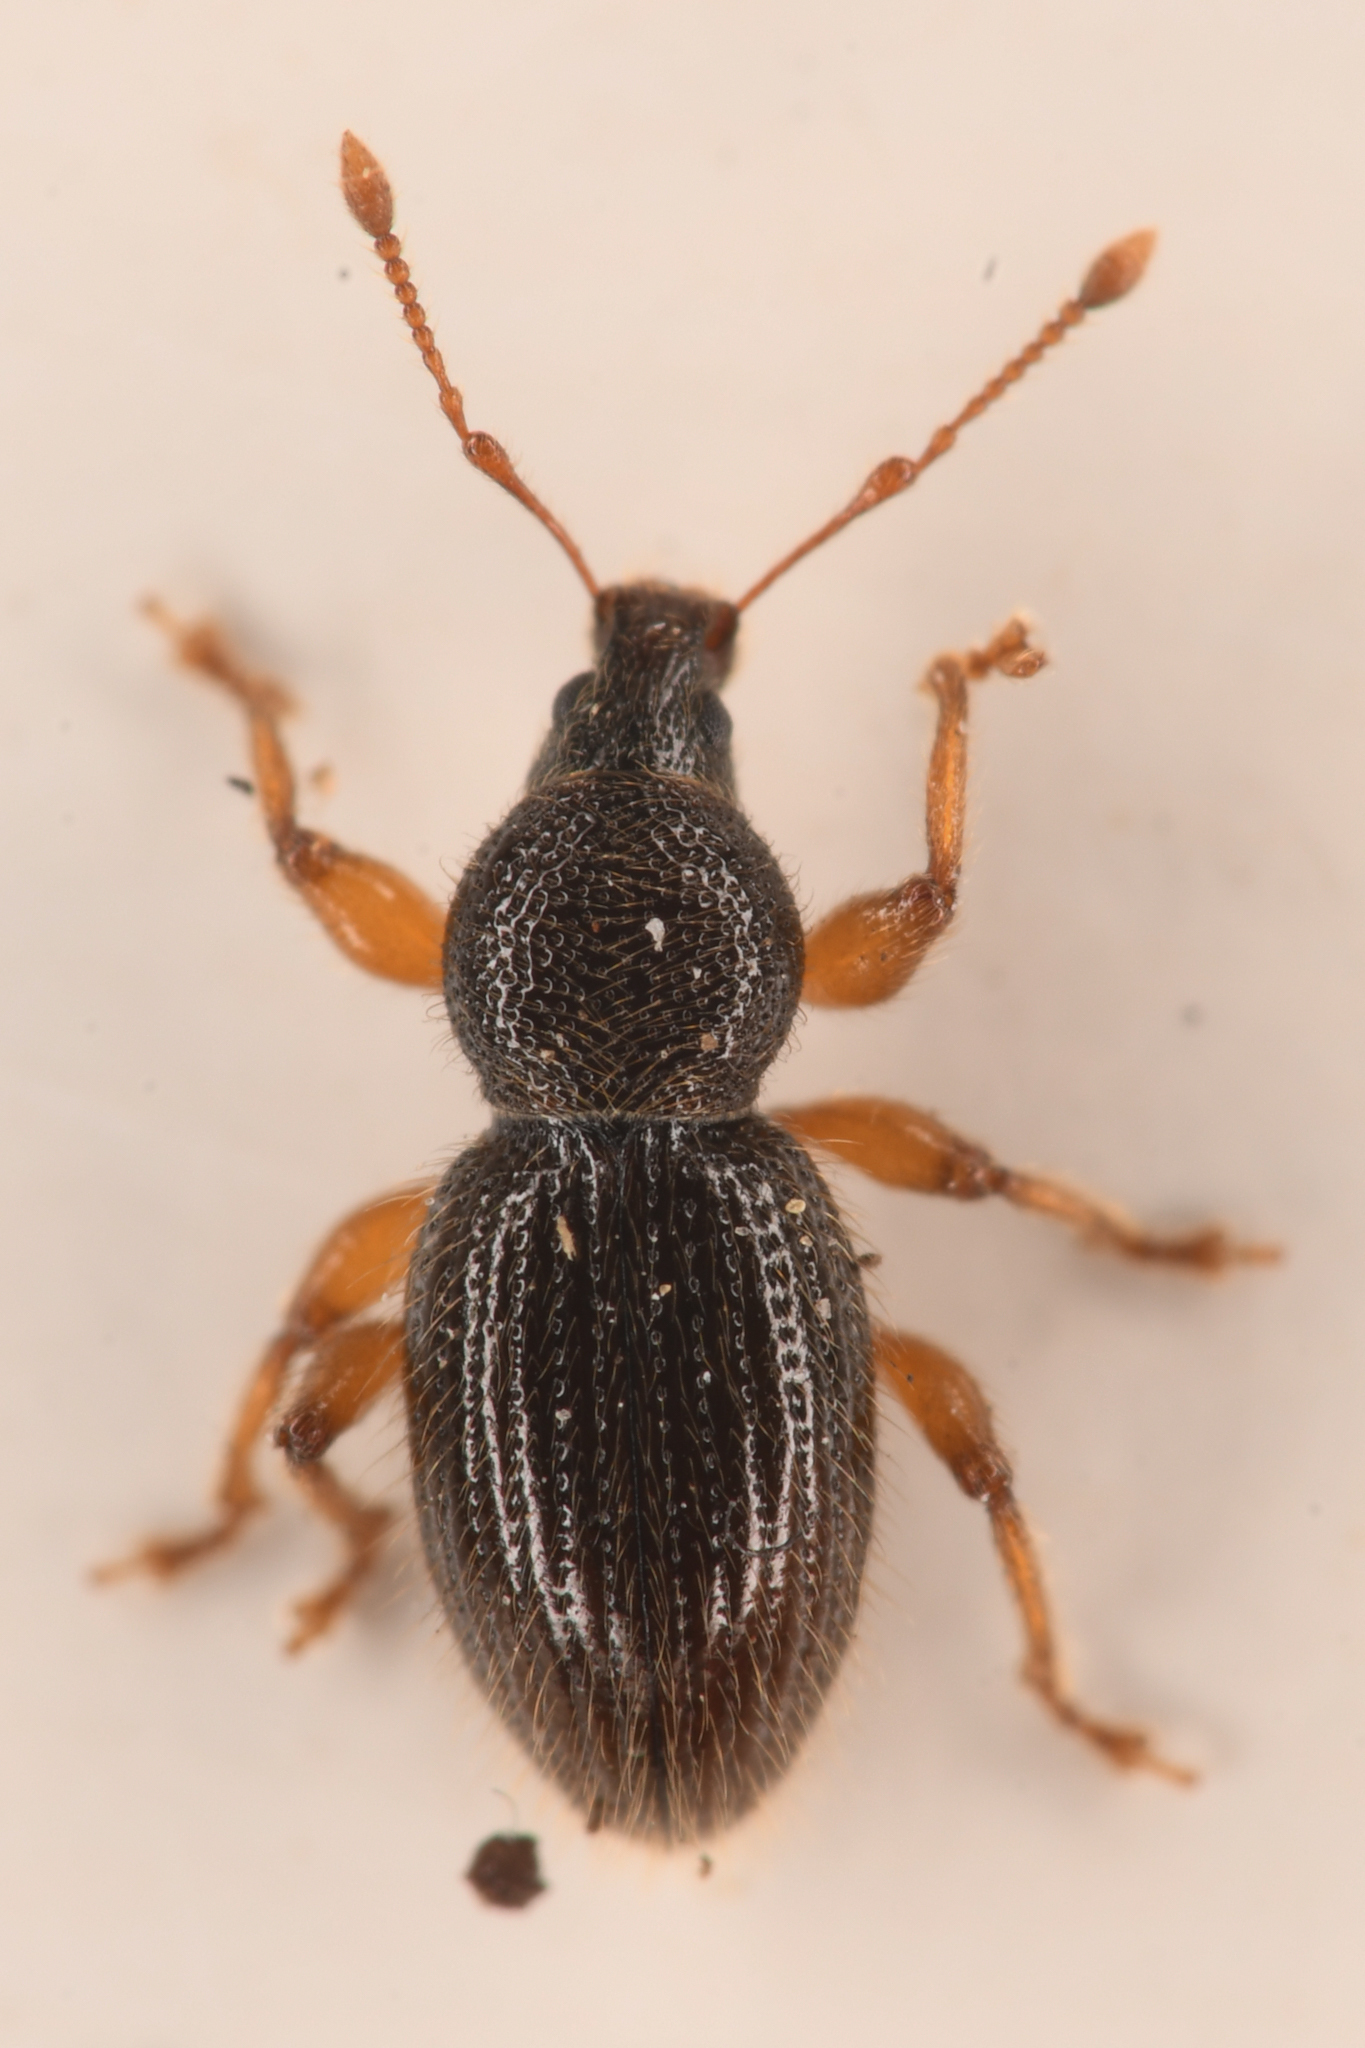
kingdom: Animalia
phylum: Arthropoda
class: Insecta
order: Coleoptera
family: Curculionidae
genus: Exomias
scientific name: Exomias pellucidus
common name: Hairy spider weevil
